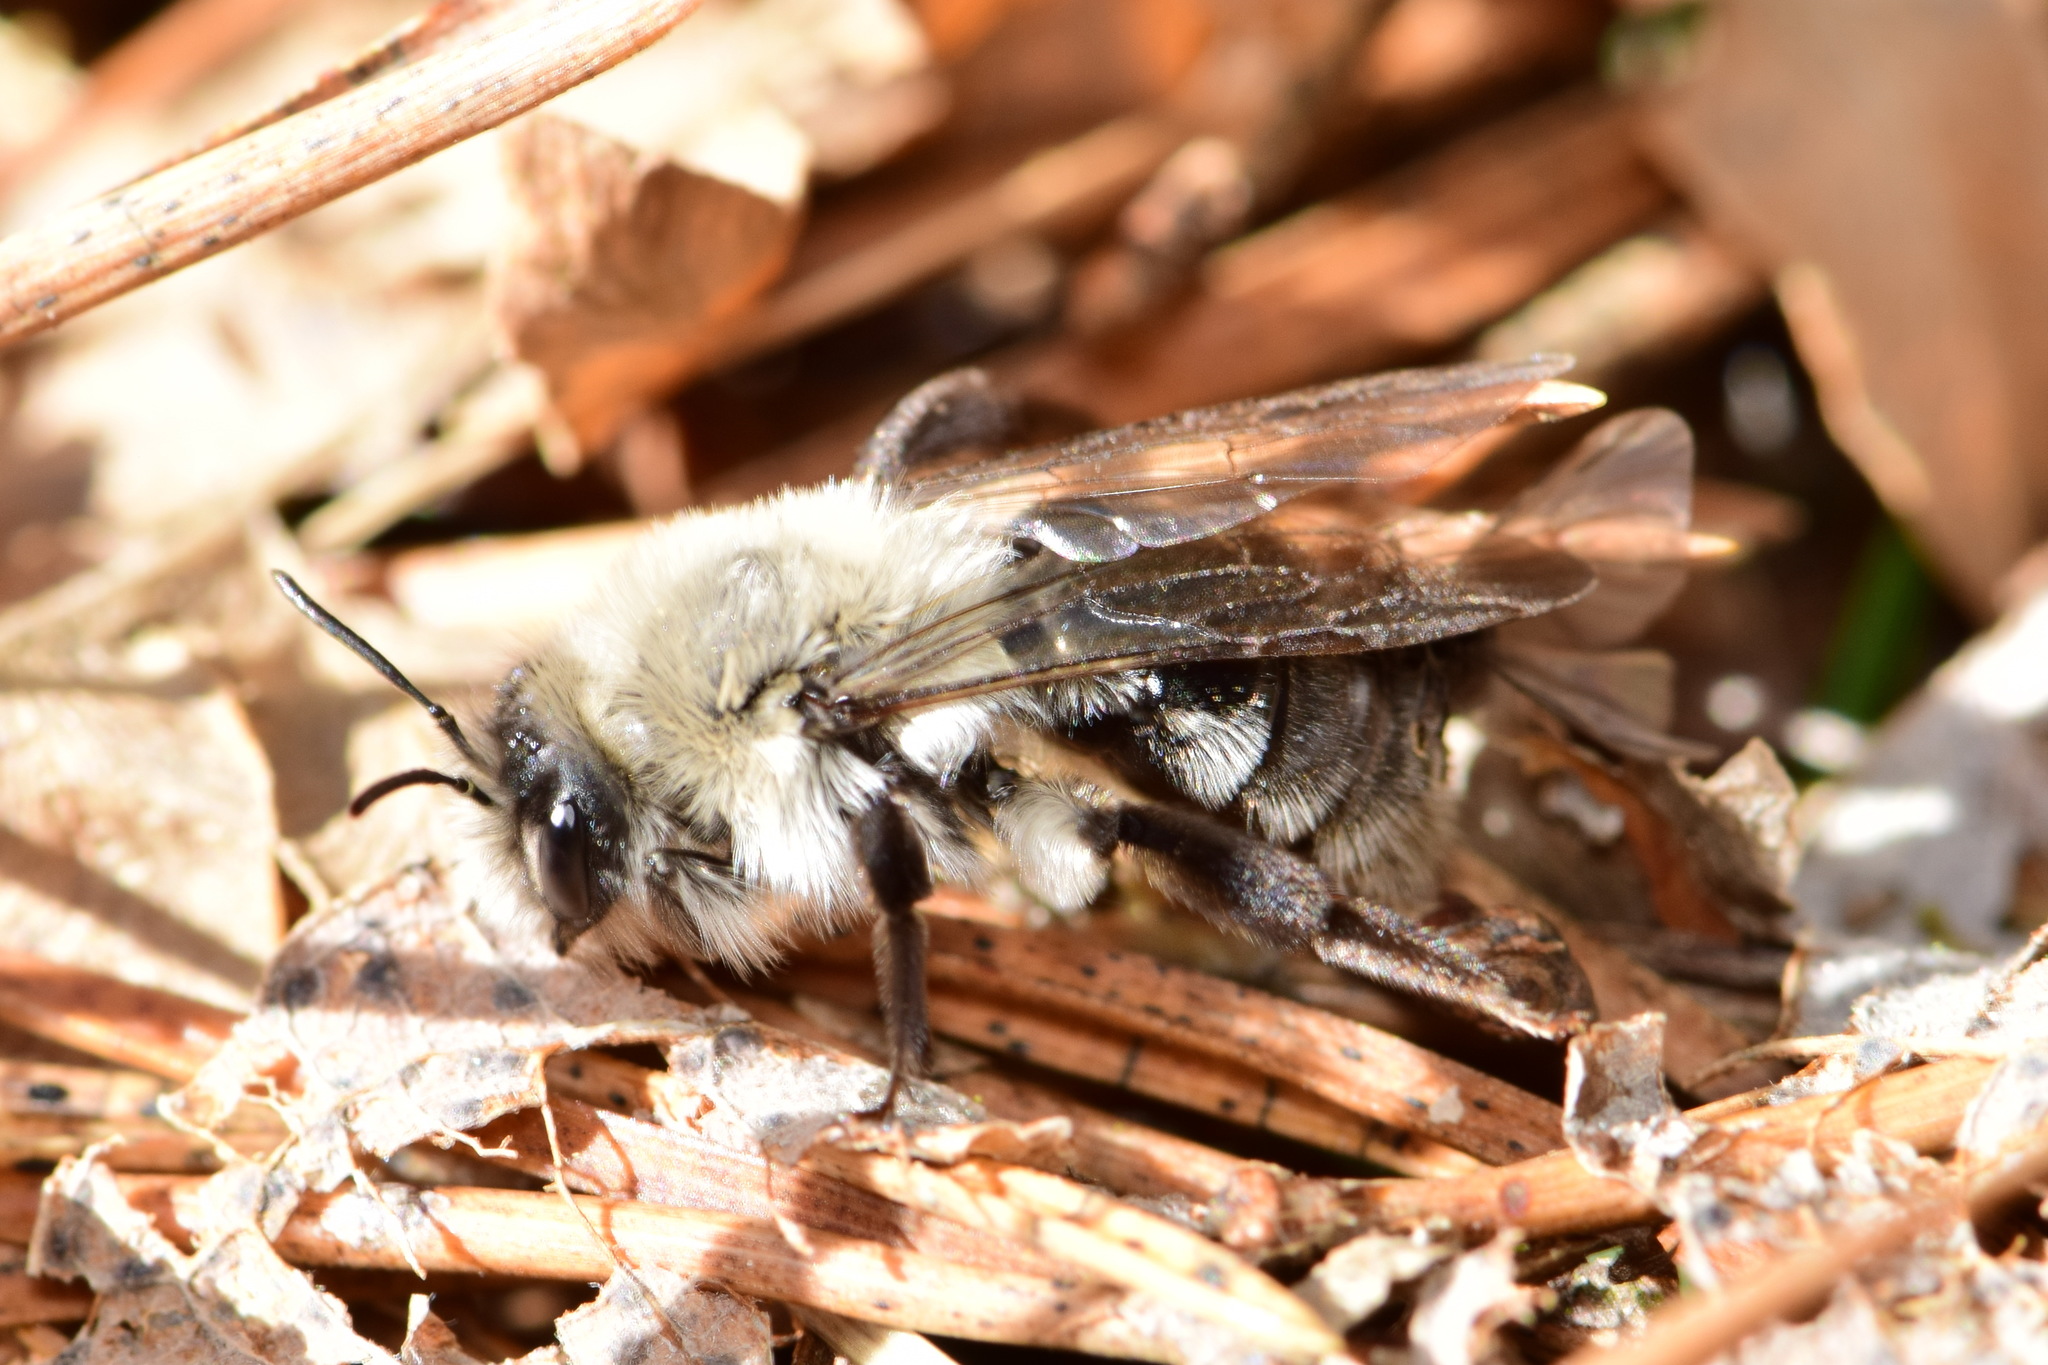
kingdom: Animalia
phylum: Arthropoda
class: Insecta
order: Hymenoptera
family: Andrenidae
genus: Andrena
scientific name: Andrena vaga
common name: Grey-backed mining bee
